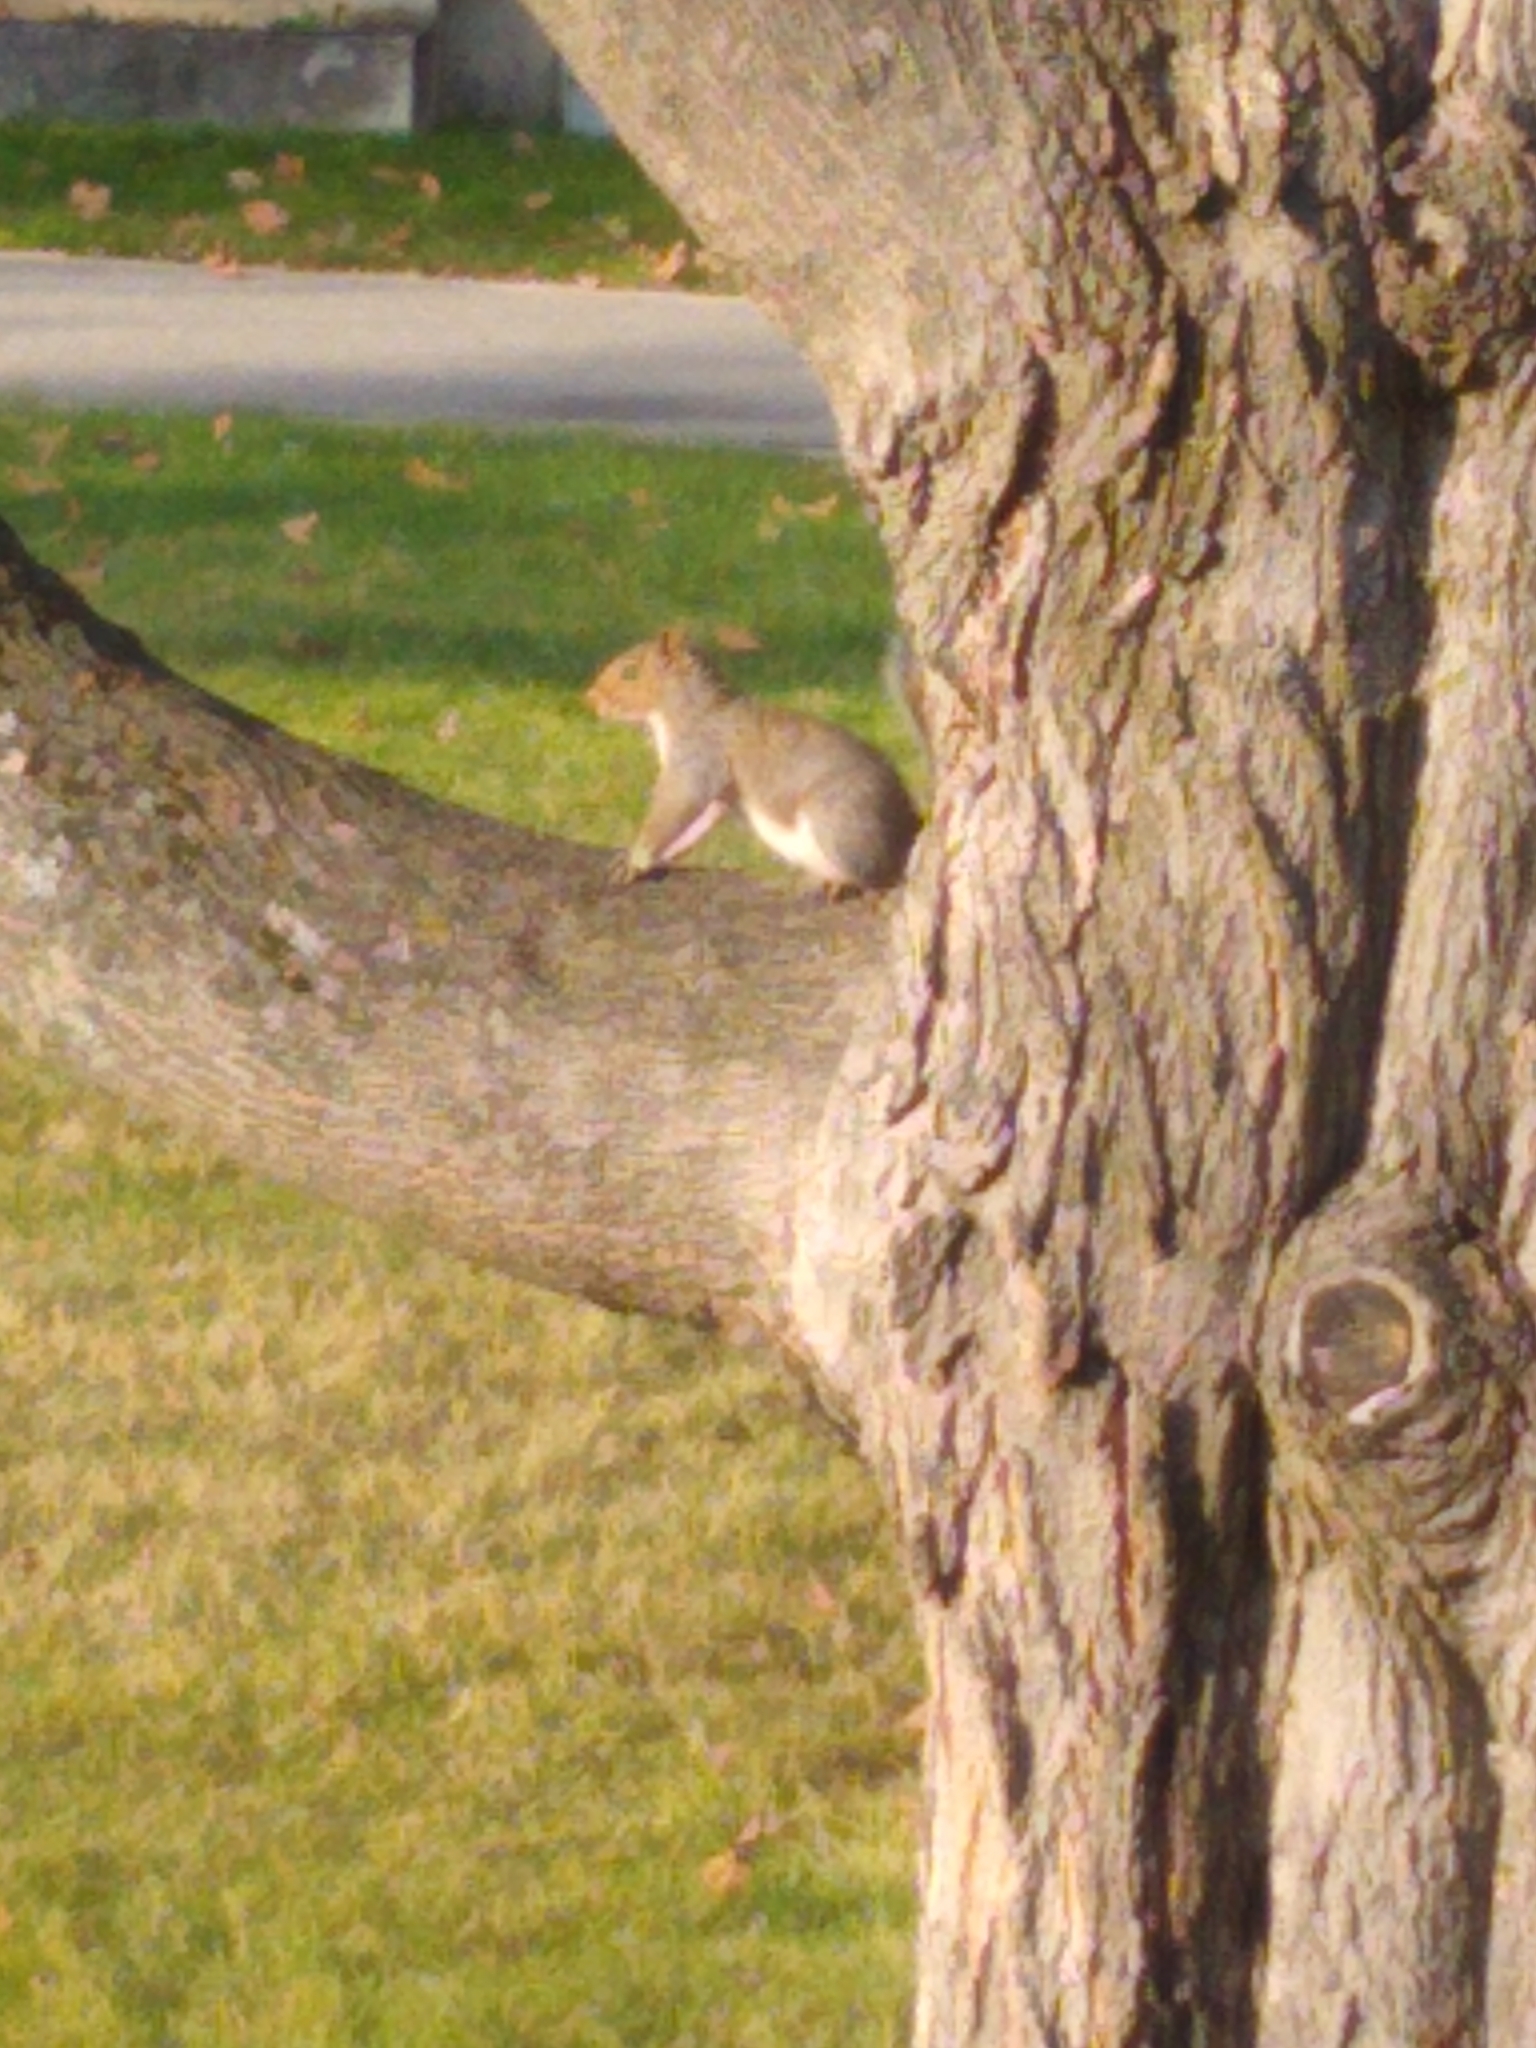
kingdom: Animalia
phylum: Chordata
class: Mammalia
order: Rodentia
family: Sciuridae
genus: Sciurus
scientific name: Sciurus carolinensis
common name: Eastern gray squirrel
